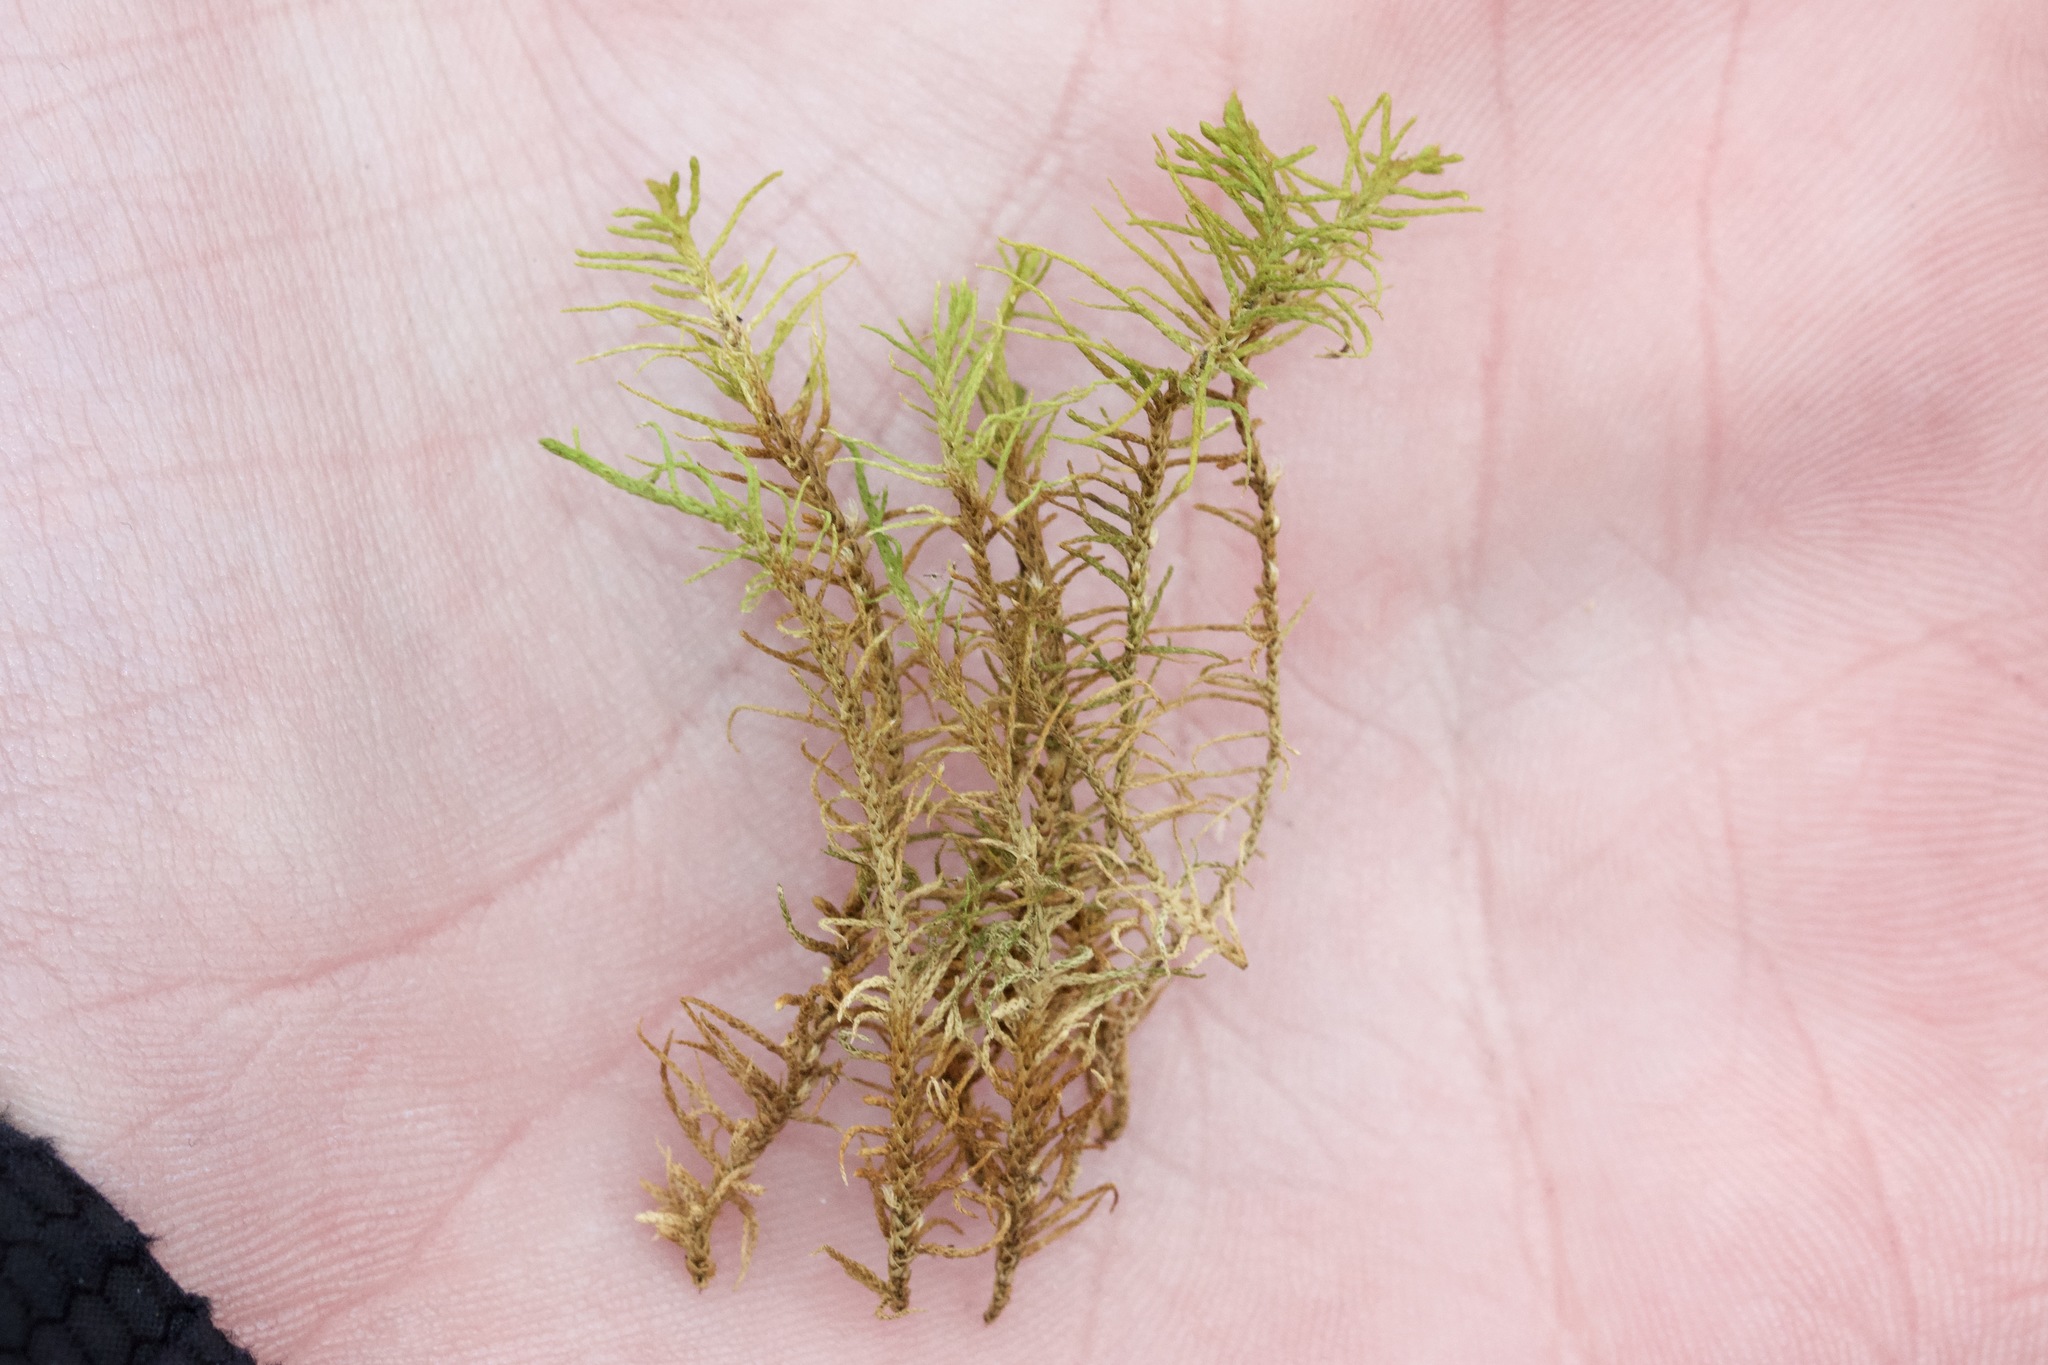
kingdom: Plantae
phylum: Bryophyta
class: Bryopsida
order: Hypnales
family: Thuidiaceae
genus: Abietinella
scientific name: Abietinella abietina
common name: Wiry fern moss
